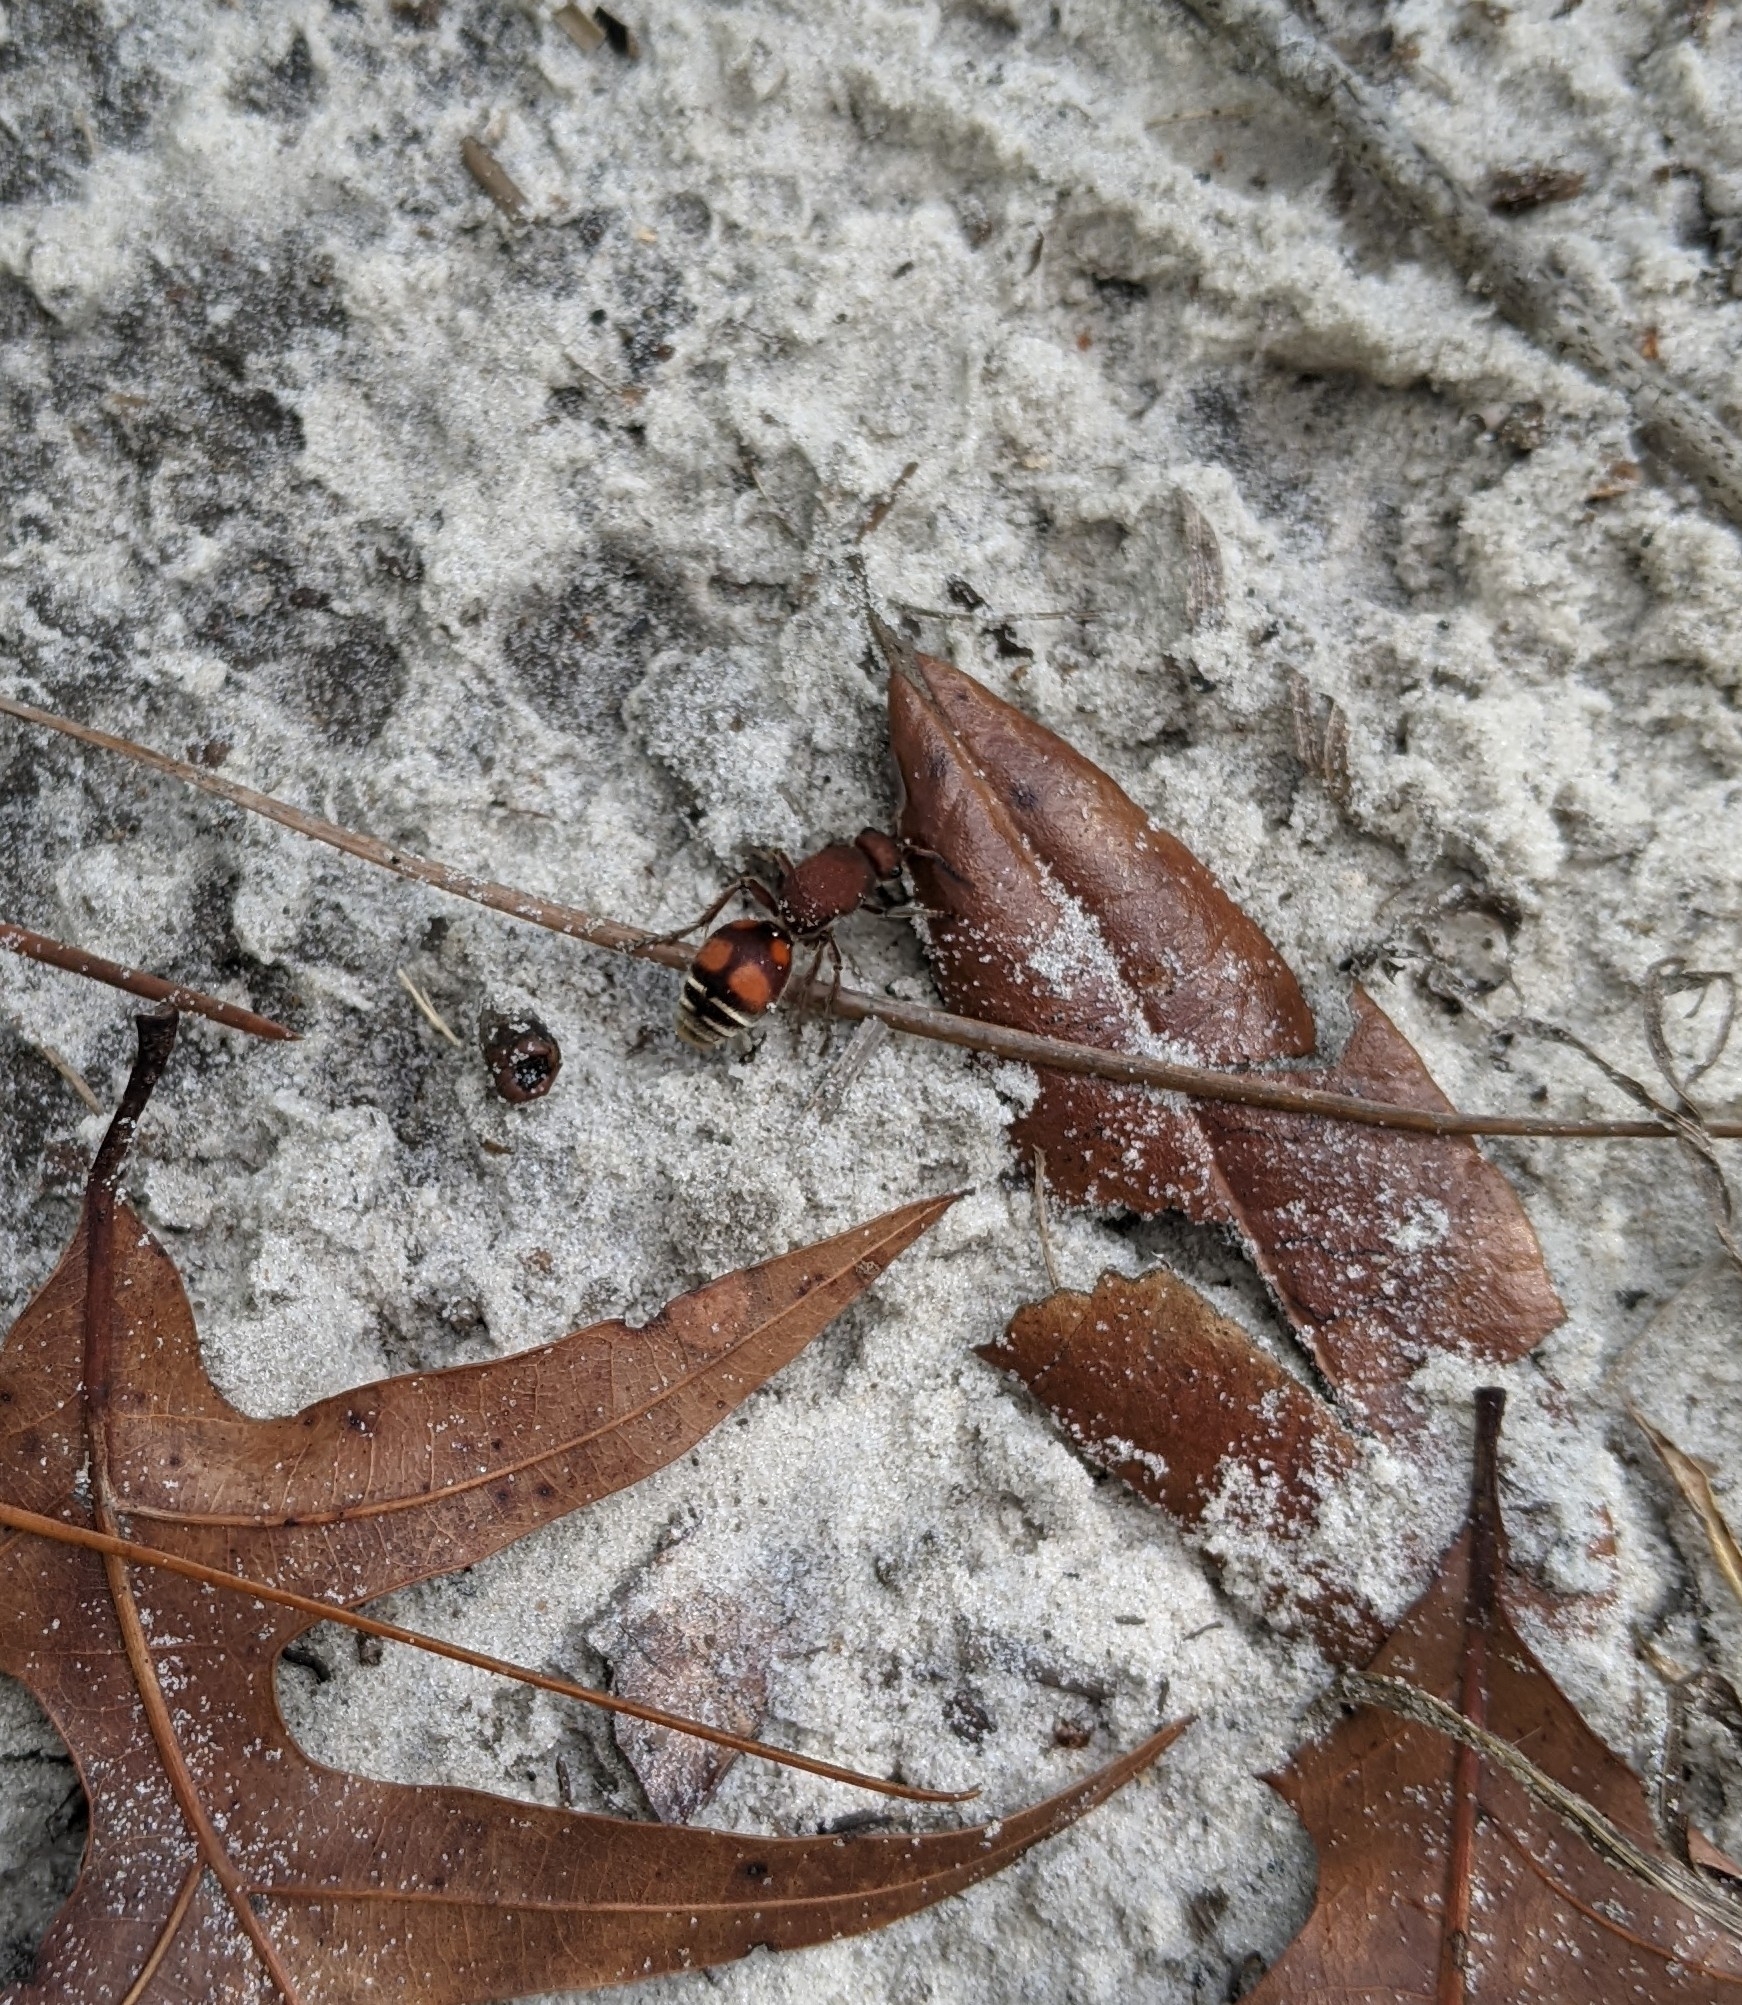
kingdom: Animalia
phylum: Arthropoda
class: Insecta
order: Hymenoptera
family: Mutillidae
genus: Dasymutilla
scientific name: Dasymutilla
